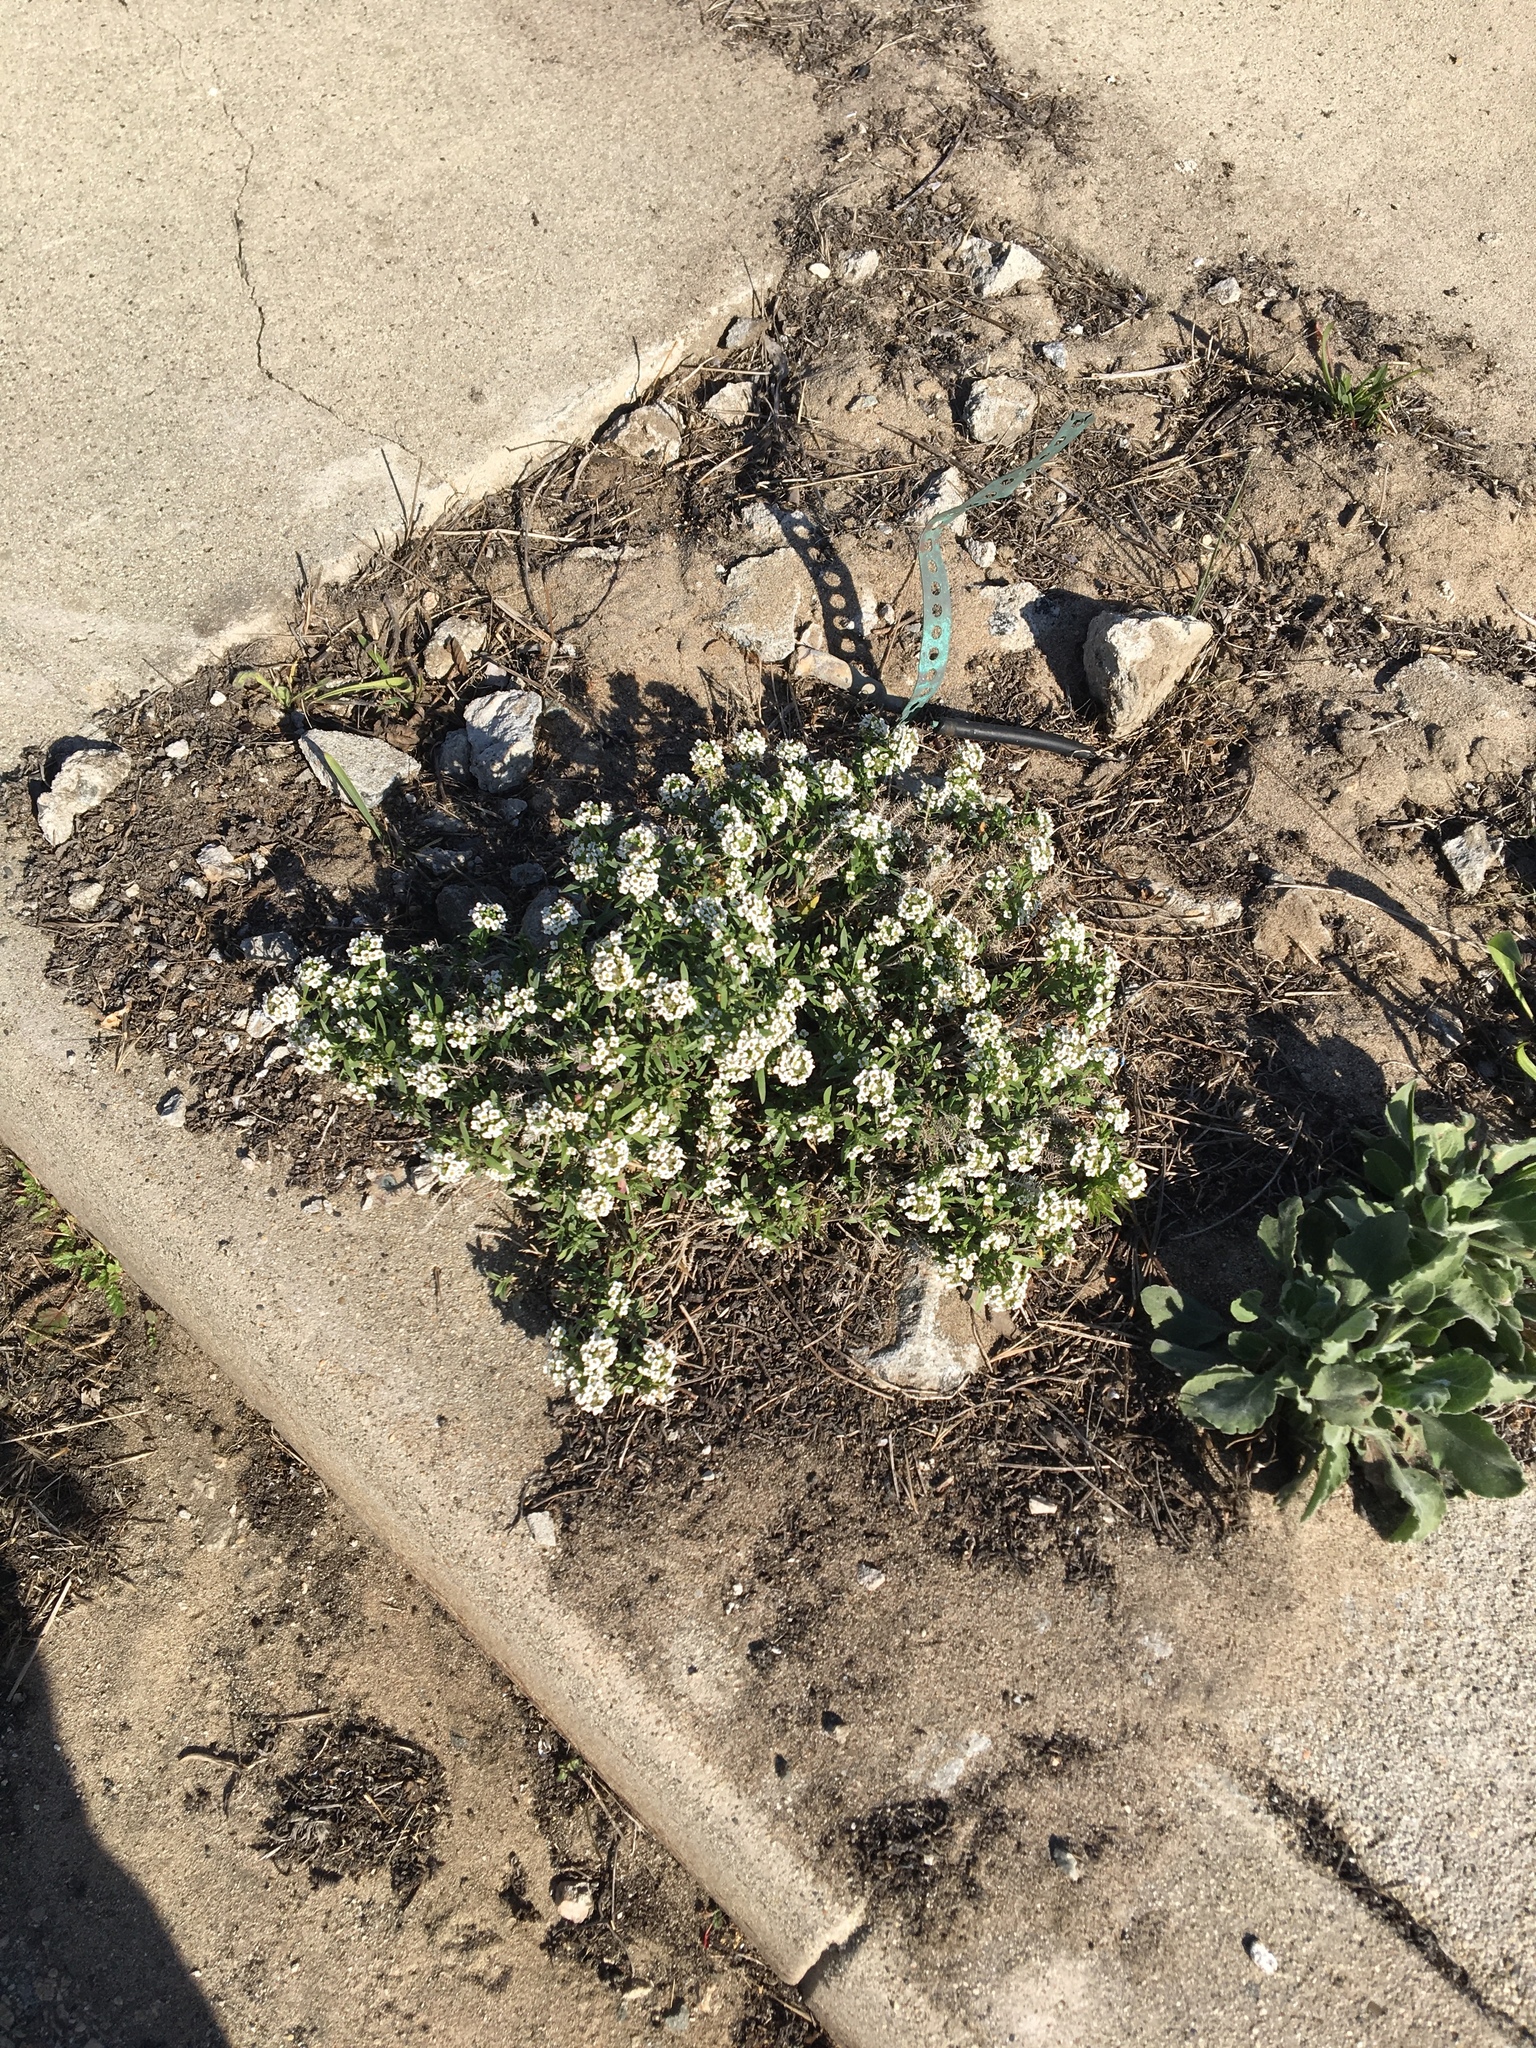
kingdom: Plantae
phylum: Tracheophyta
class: Magnoliopsida
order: Brassicales
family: Brassicaceae
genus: Lobularia
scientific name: Lobularia maritima
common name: Sweet alison
